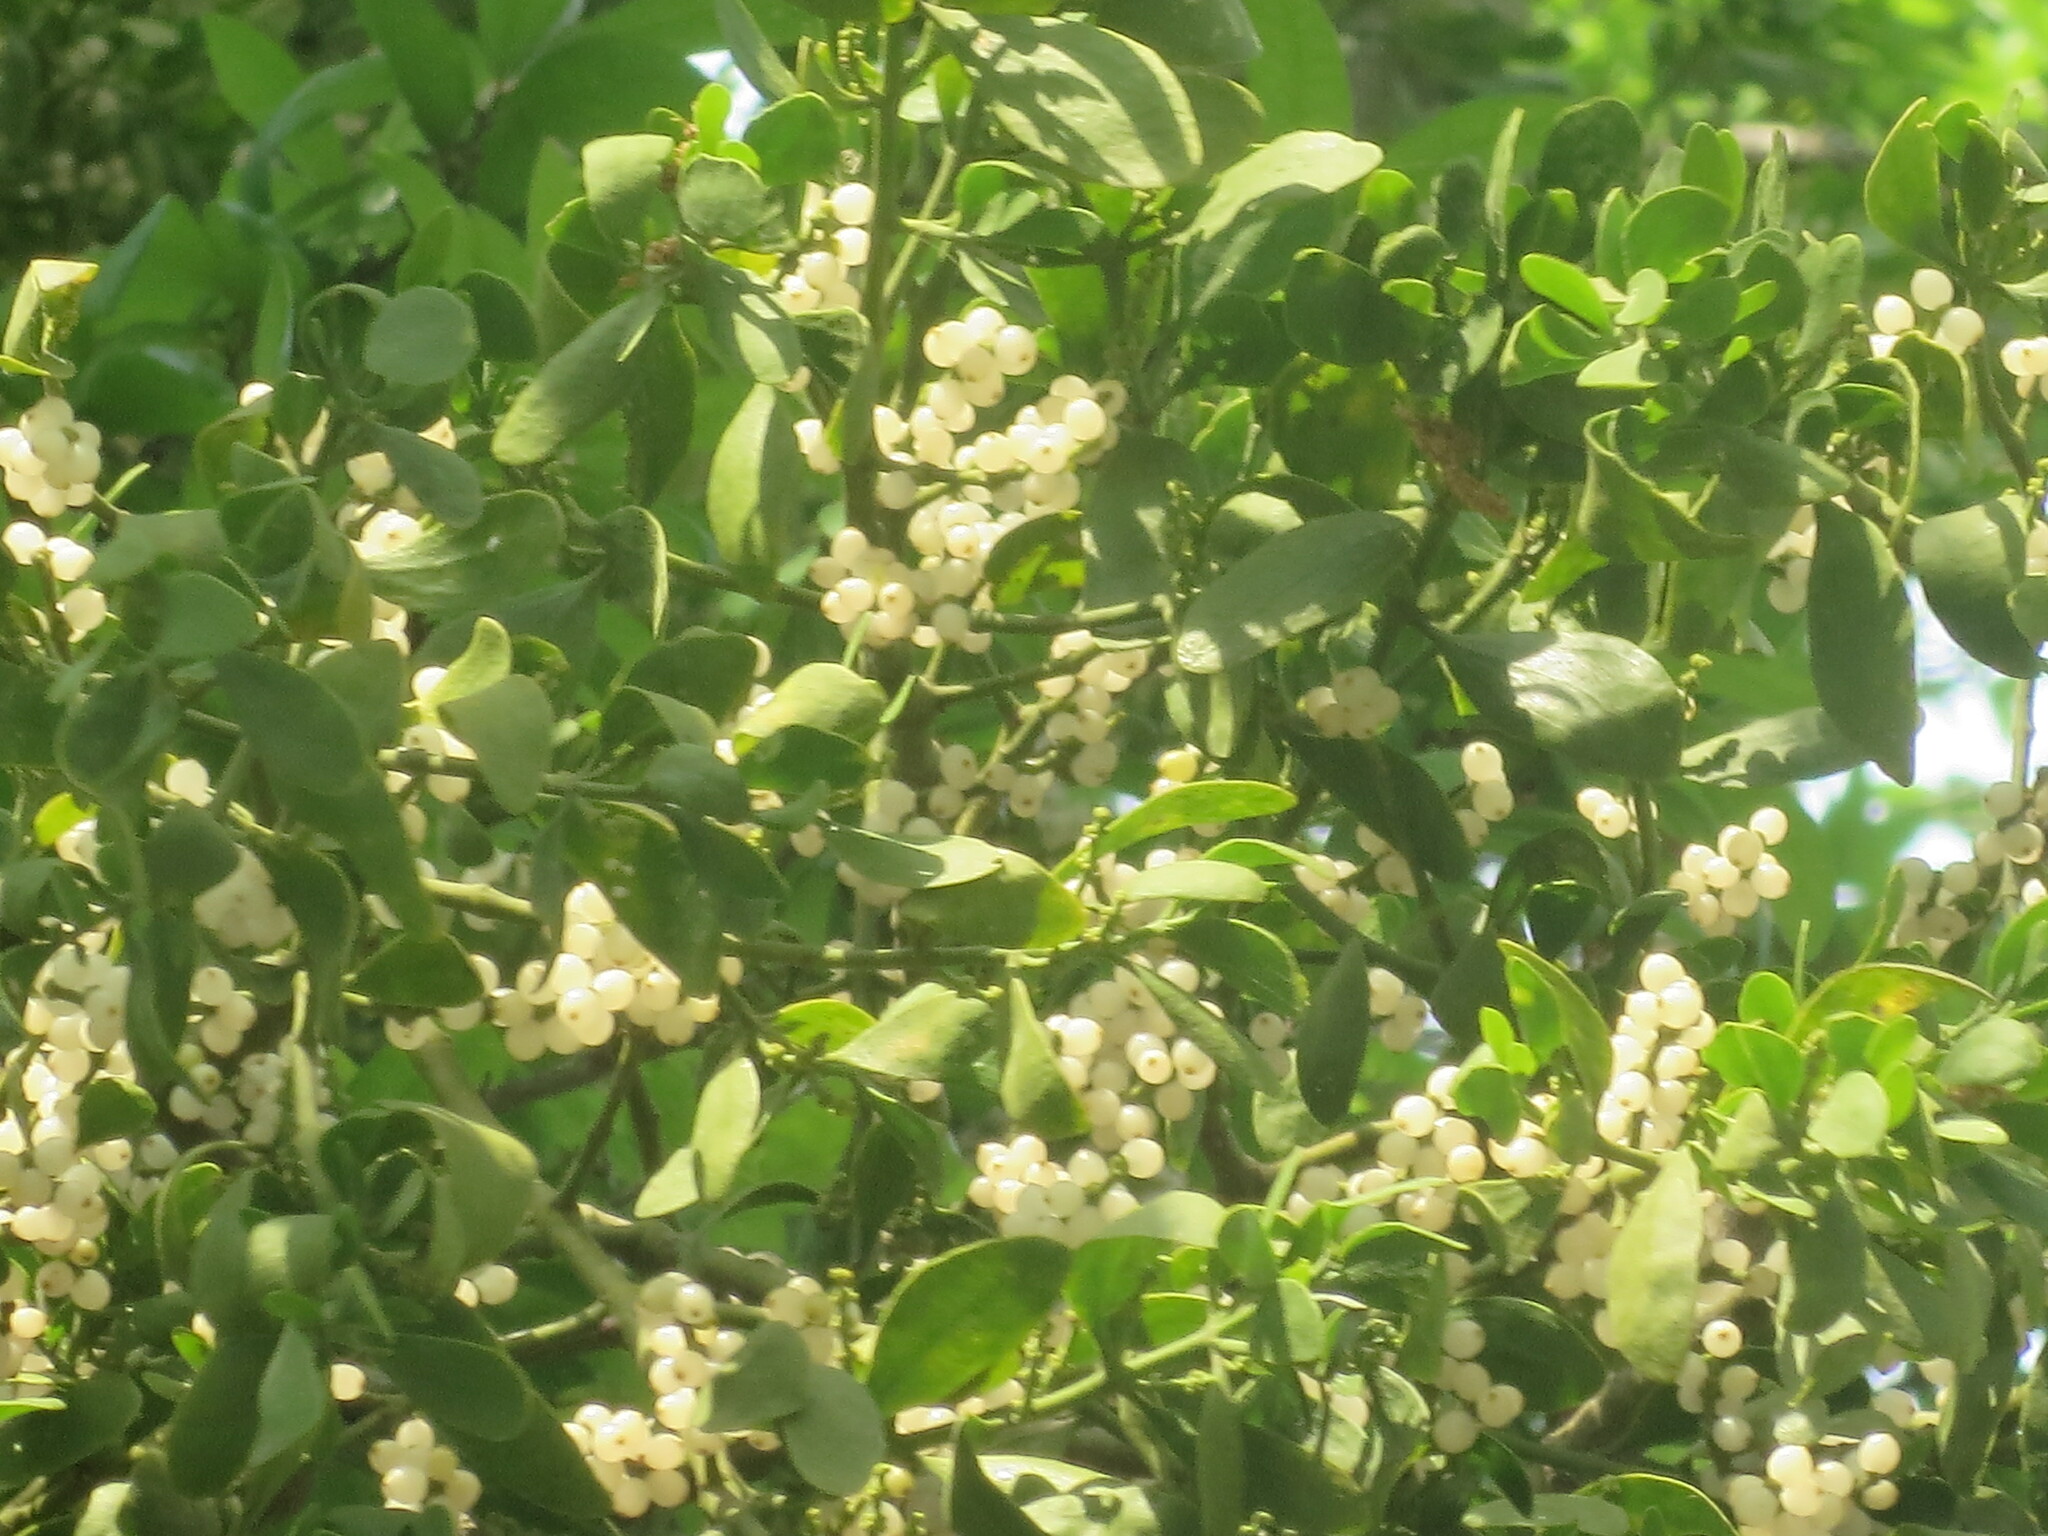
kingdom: Plantae
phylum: Tracheophyta
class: Magnoliopsida
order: Santalales
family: Viscaceae
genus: Phoradendron
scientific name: Phoradendron leucarpum
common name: Pacific mistletoe
